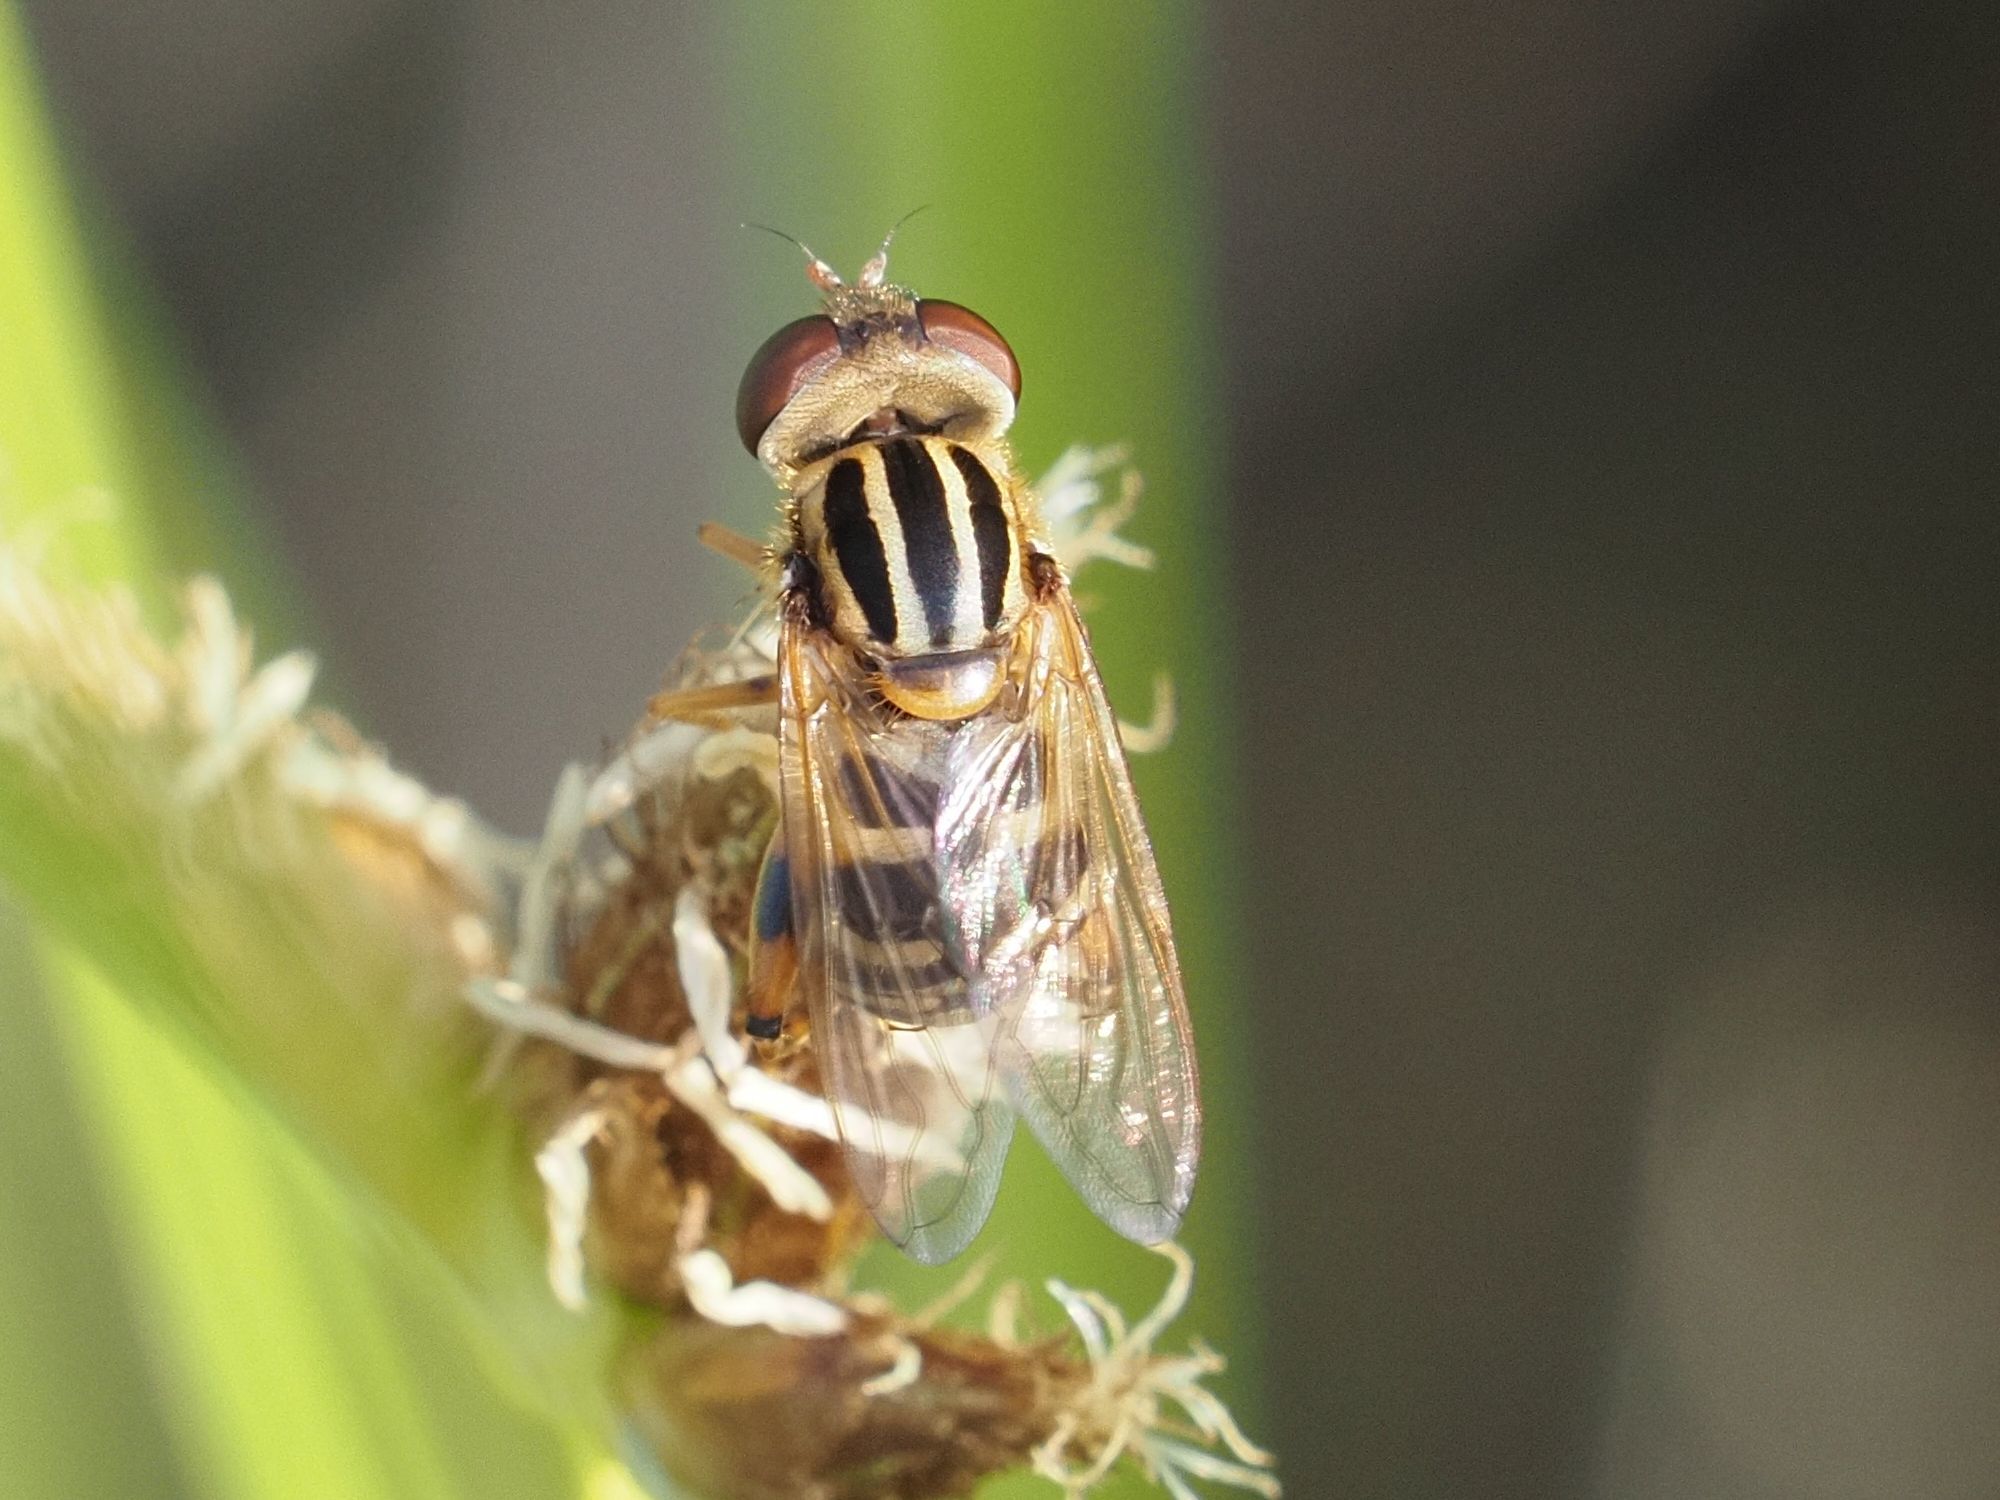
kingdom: Animalia
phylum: Arthropoda
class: Insecta
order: Diptera
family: Syrphidae
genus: Eurimyia
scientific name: Eurimyia lineatus
